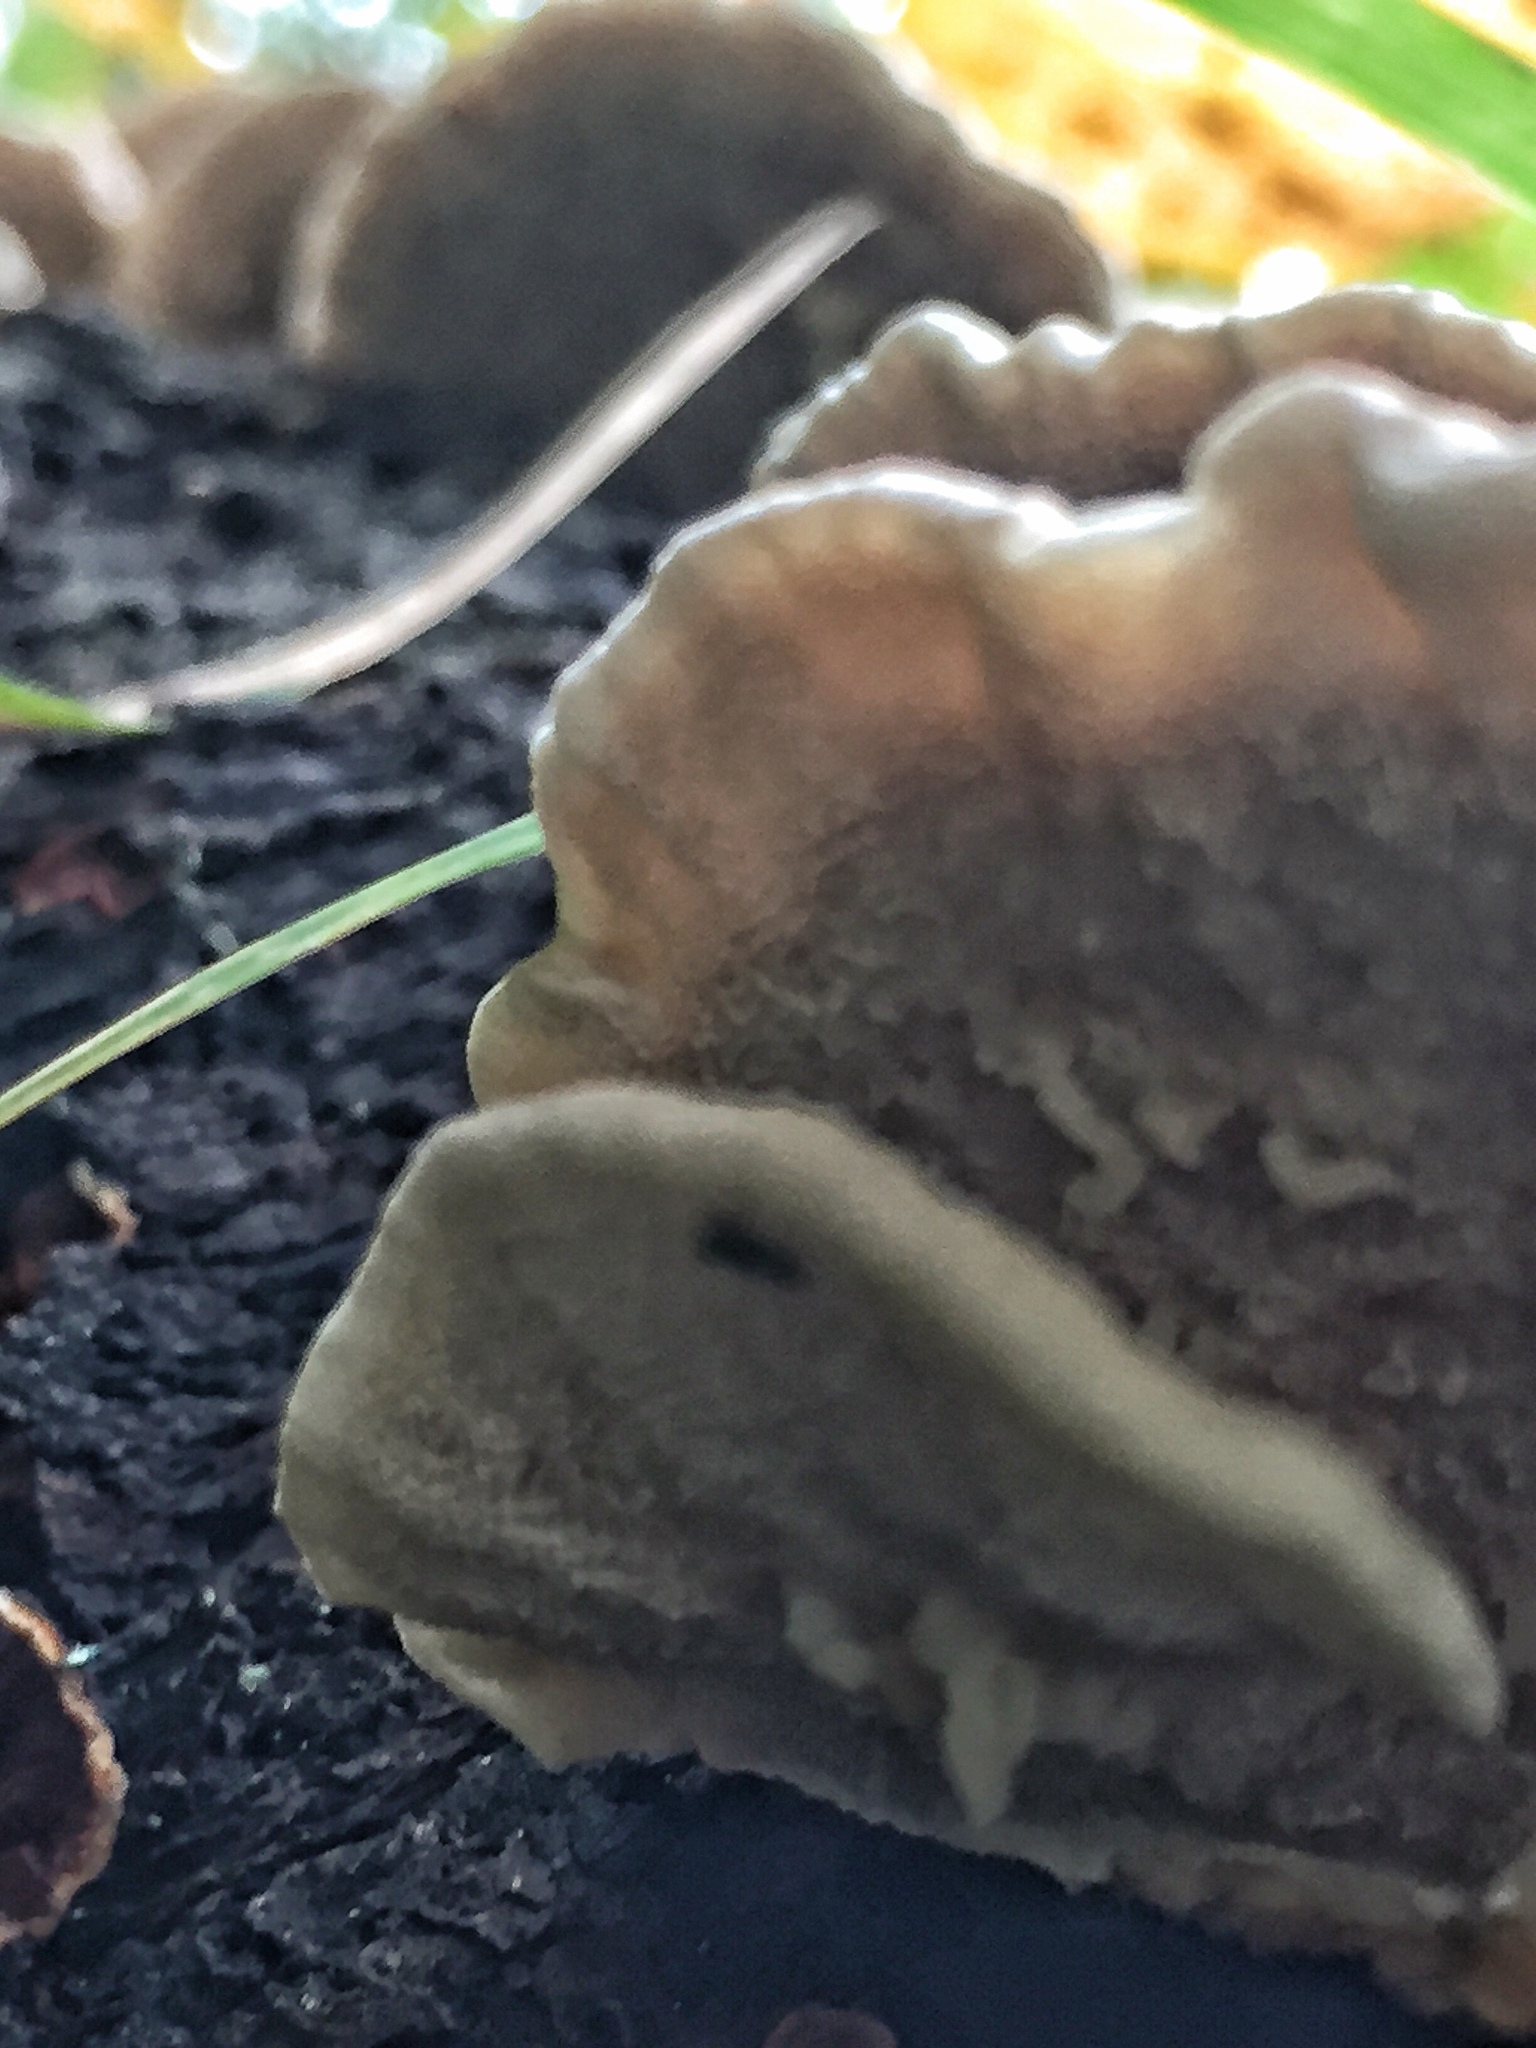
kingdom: Fungi
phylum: Basidiomycota
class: Agaricomycetes
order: Polyporales
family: Polyporaceae
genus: Trametes
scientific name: Trametes ochracea
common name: Ochre bracket
